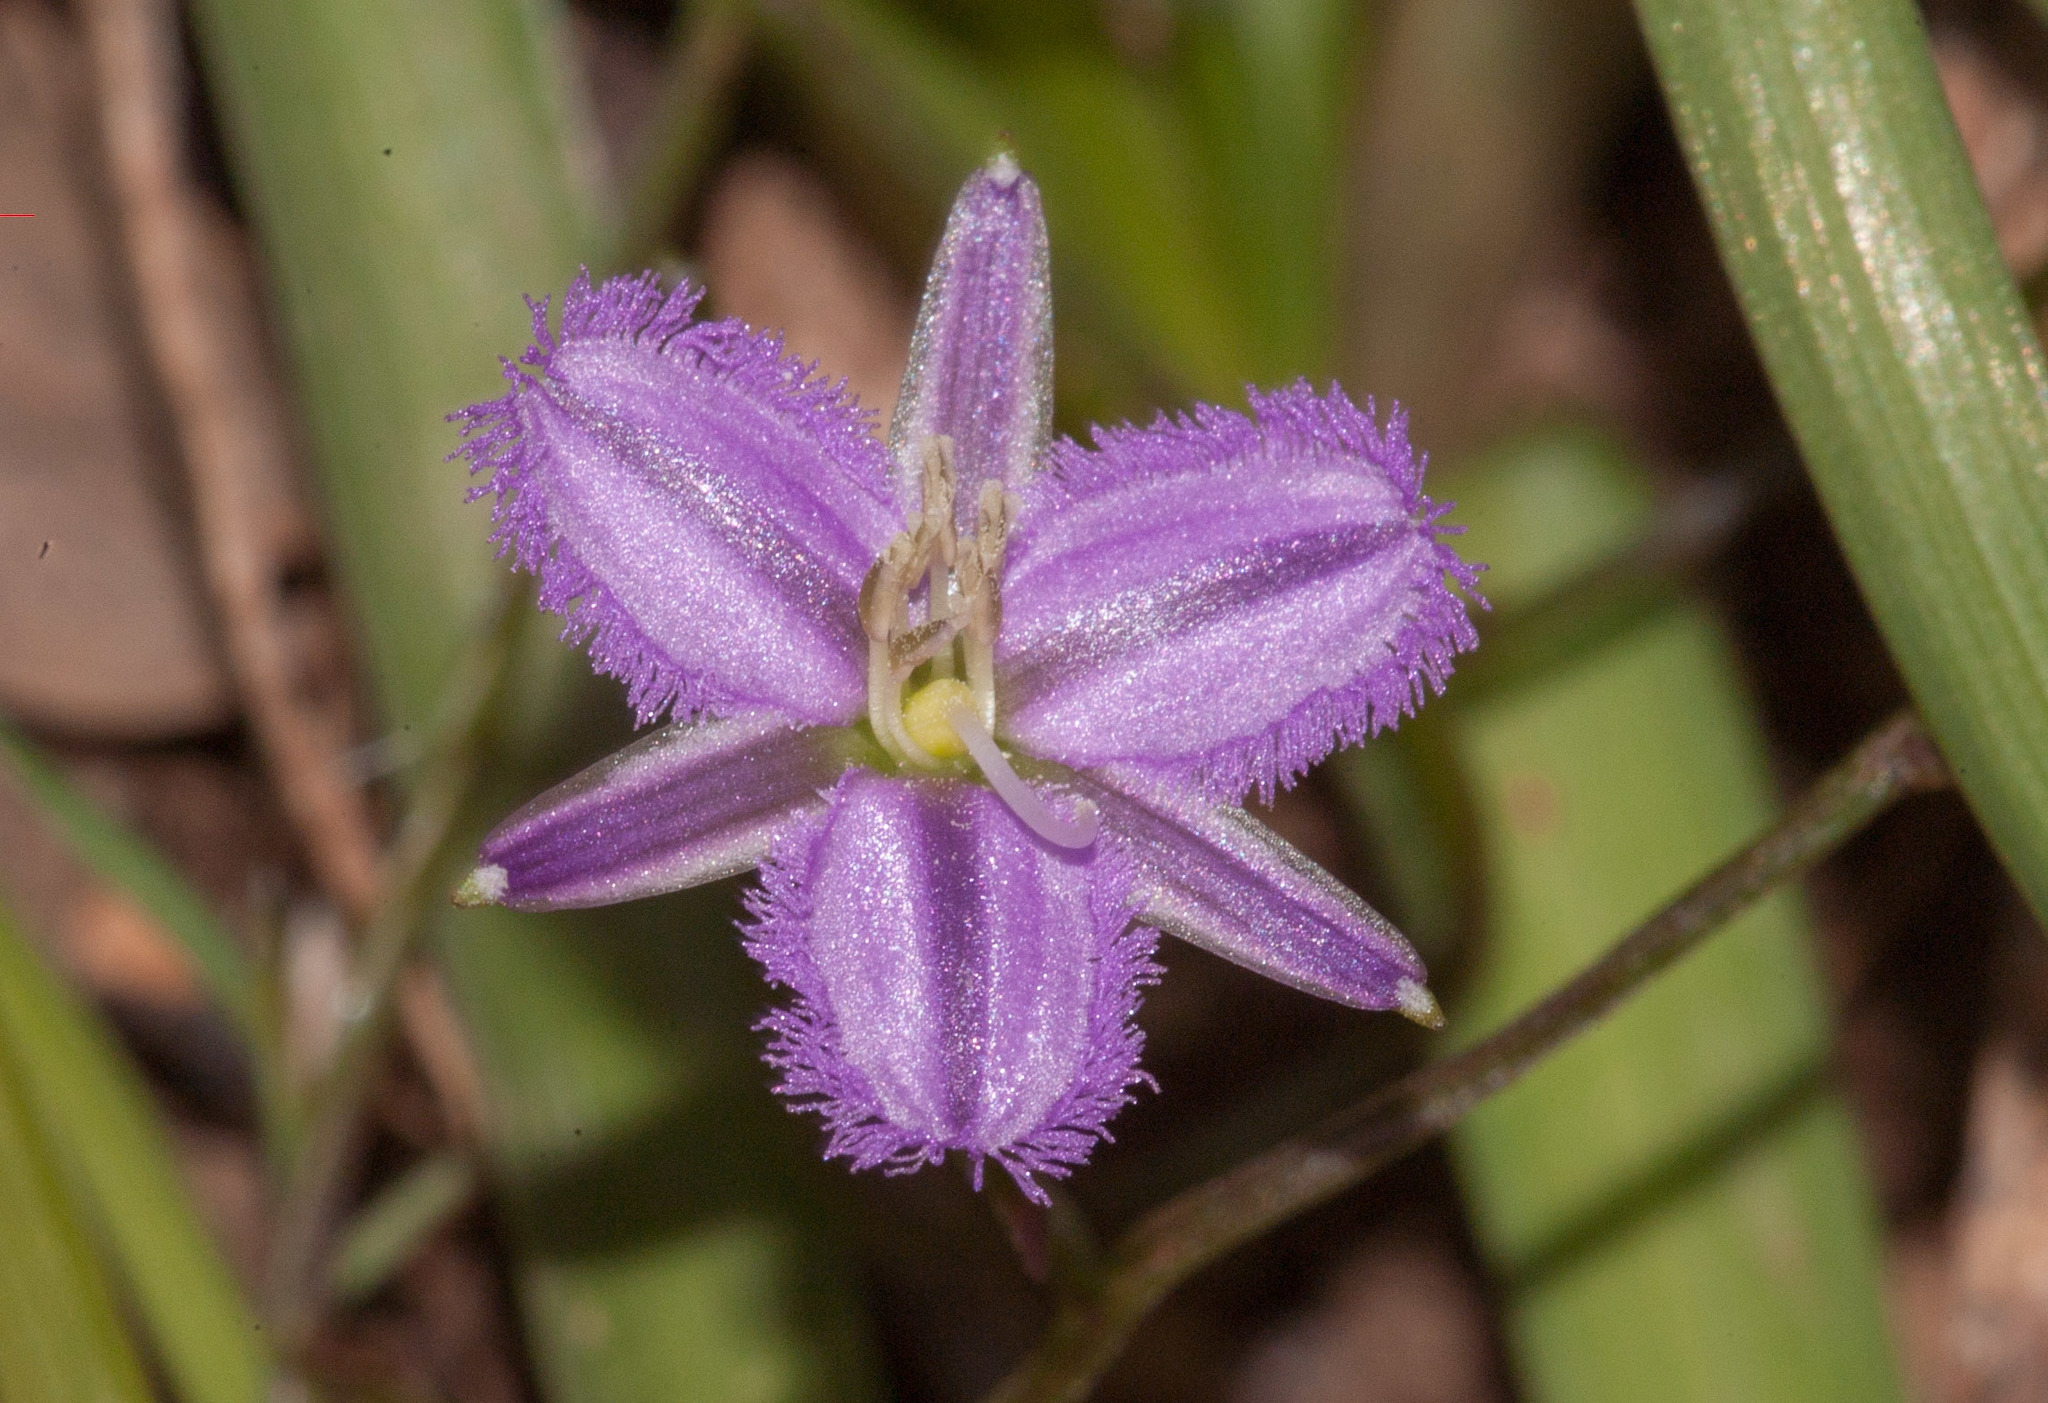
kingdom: Plantae
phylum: Tracheophyta
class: Liliopsida
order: Asparagales
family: Asparagaceae
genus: Thysanotus
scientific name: Thysanotus
